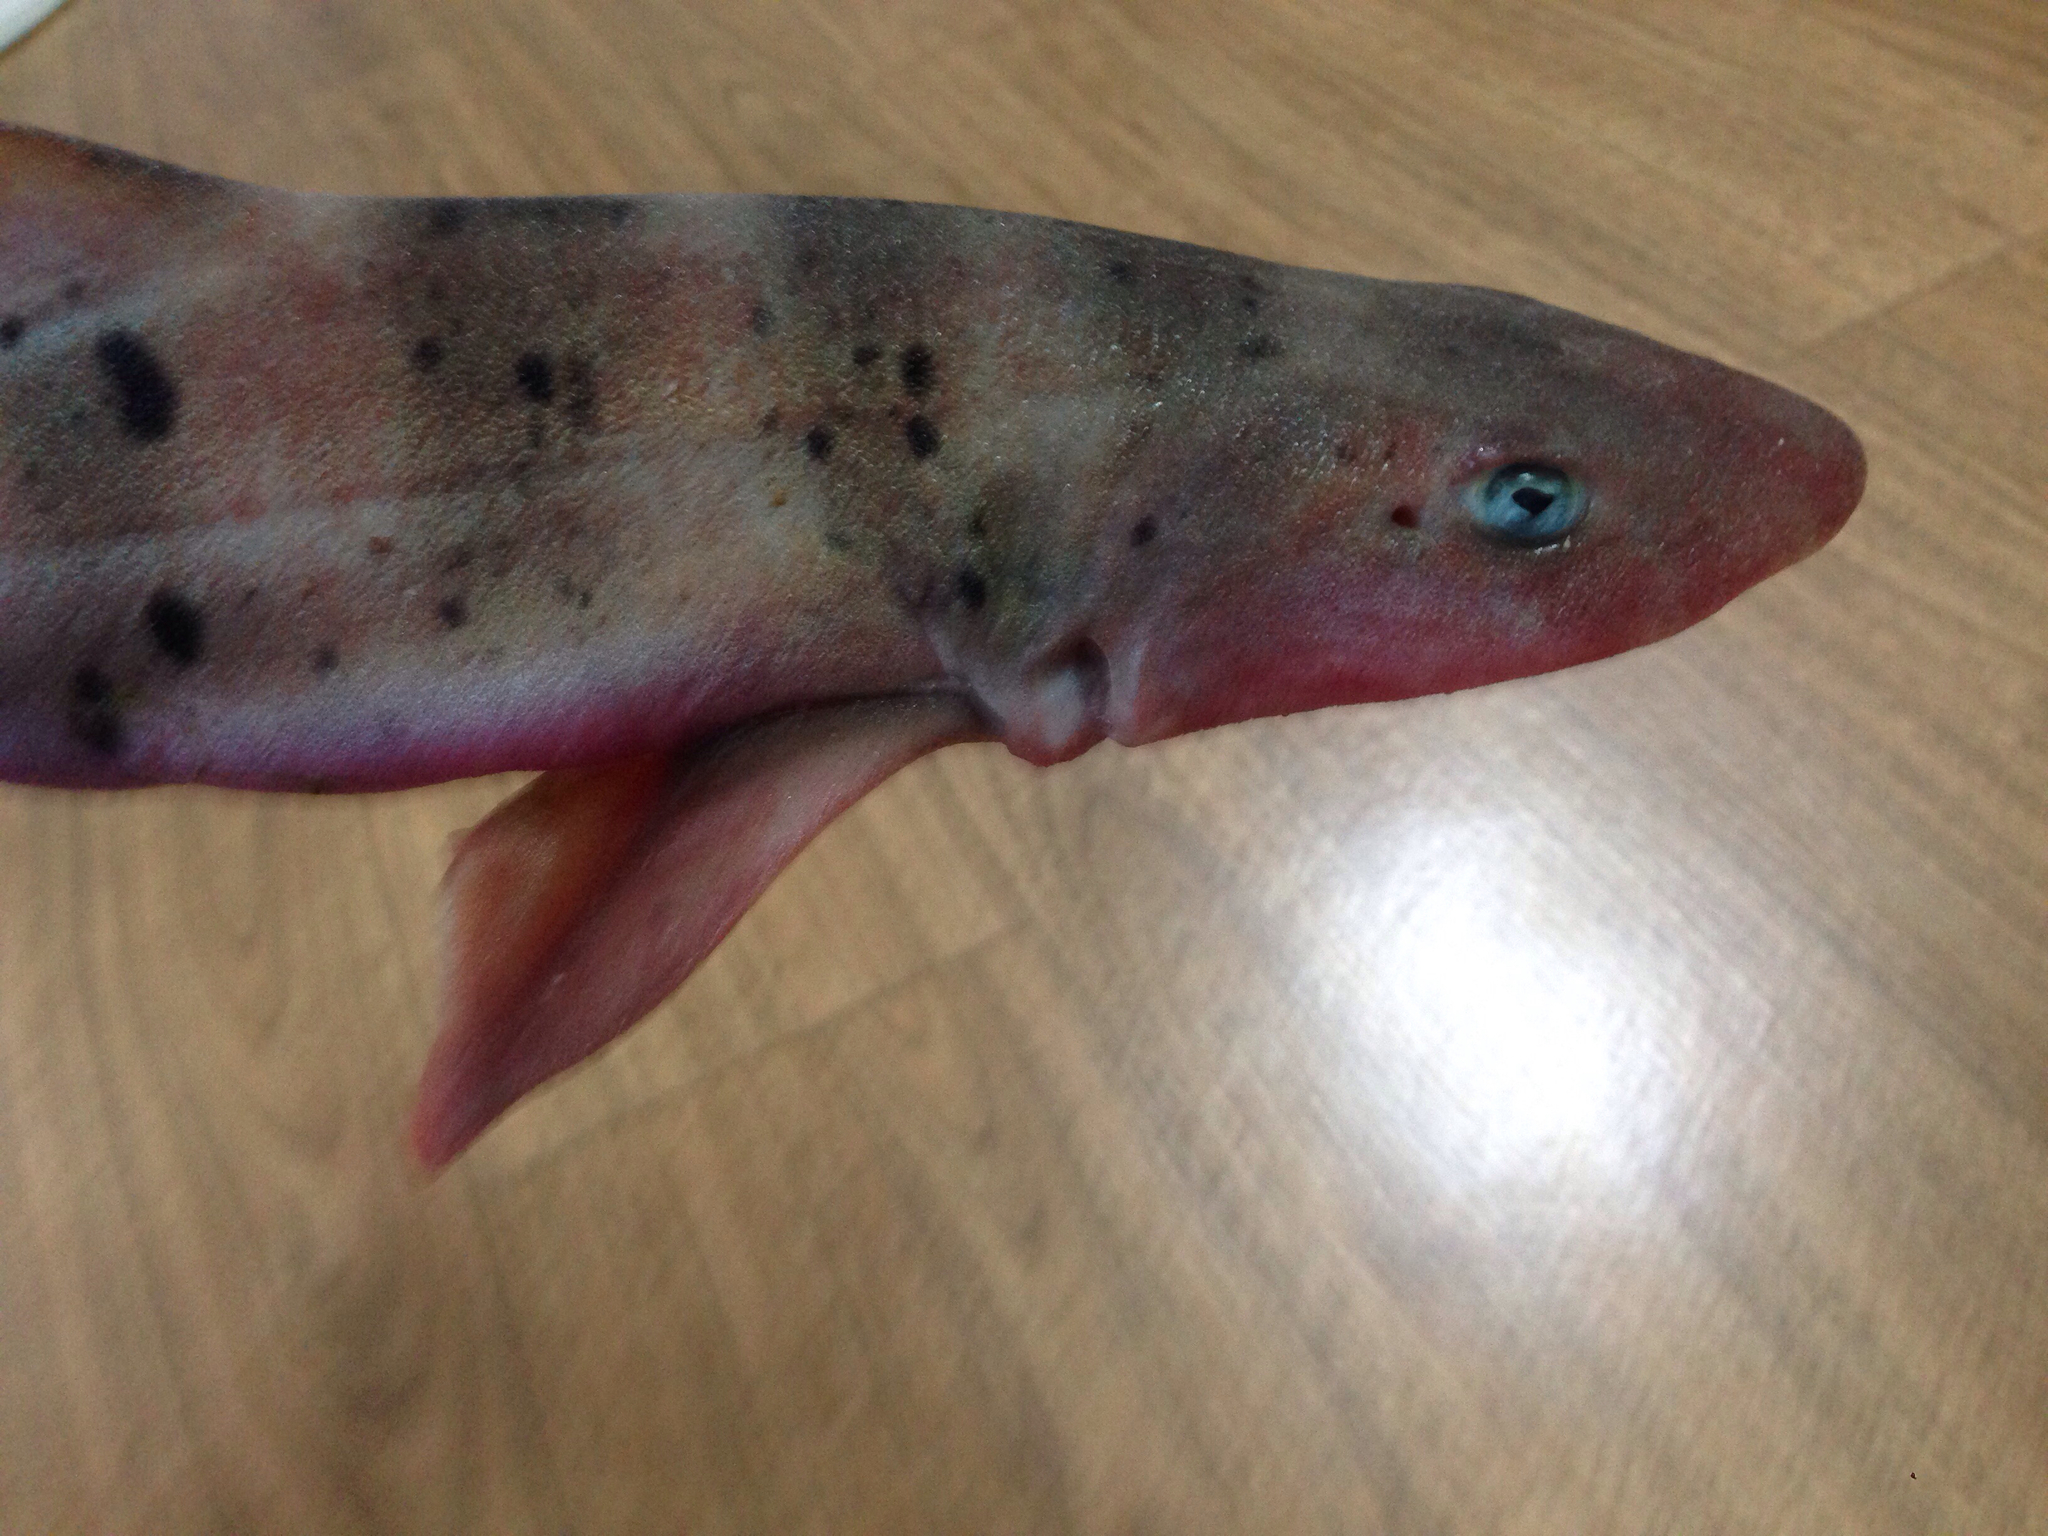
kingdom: Animalia
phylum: Chordata
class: Elasmobranchii
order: Carcharhiniformes
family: Triakidae
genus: Triakis
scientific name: Triakis scyllium
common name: Banded houndshark
